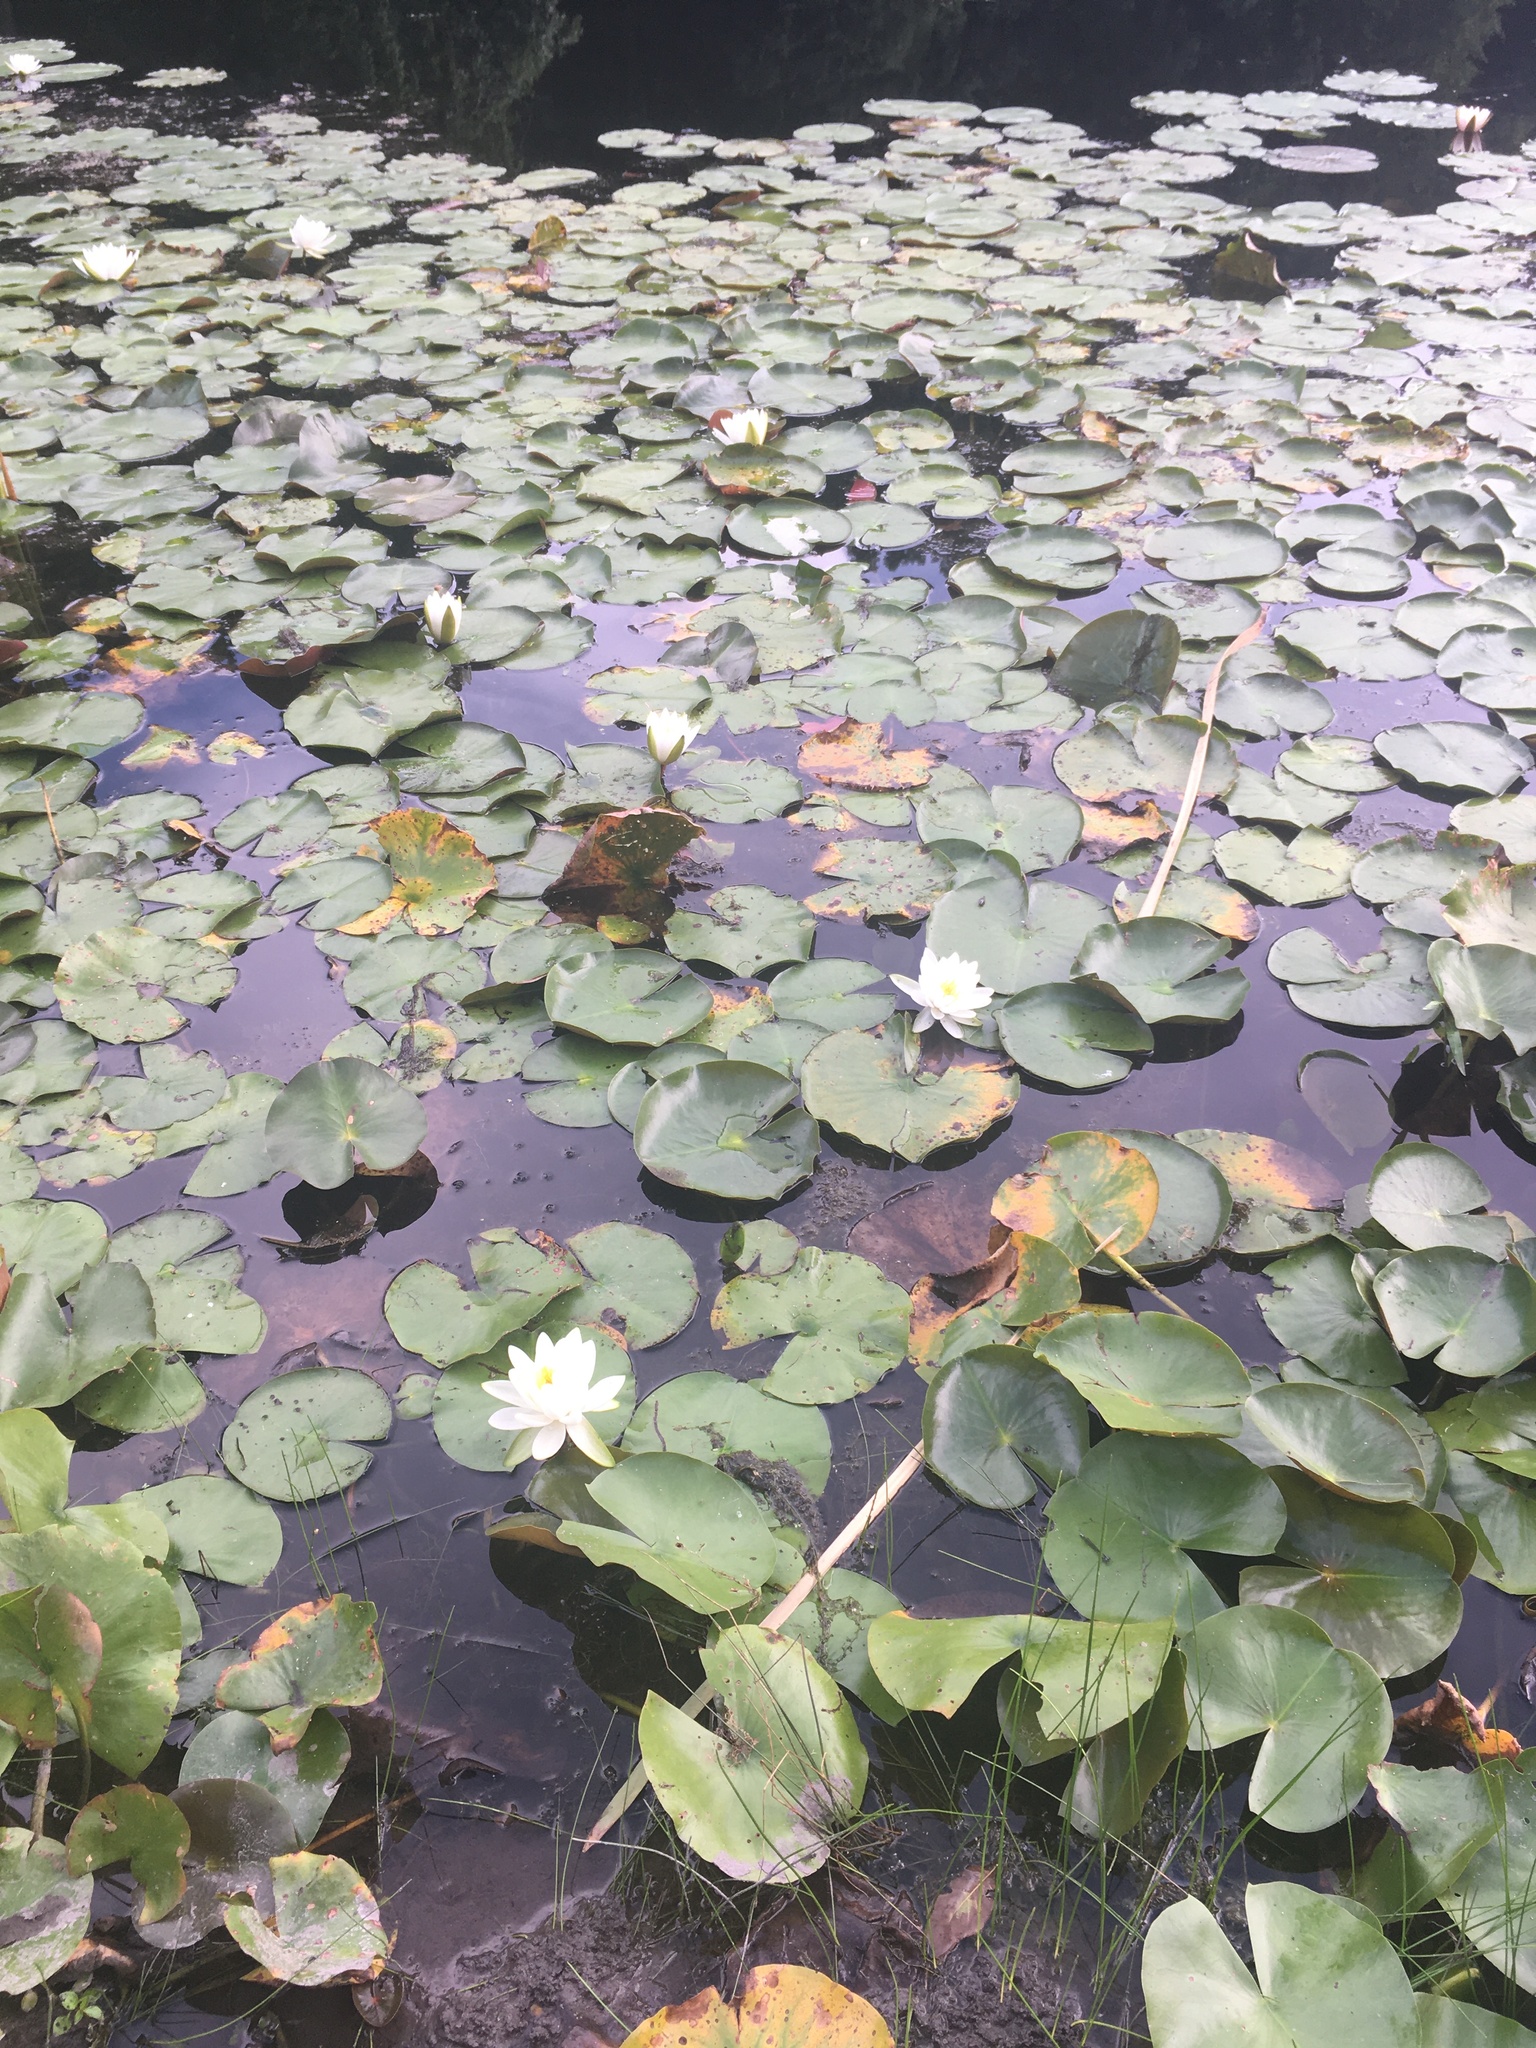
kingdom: Plantae
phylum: Tracheophyta
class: Magnoliopsida
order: Nymphaeales
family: Nymphaeaceae
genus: Nymphaea
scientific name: Nymphaea odorata
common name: Fragrant water-lily
